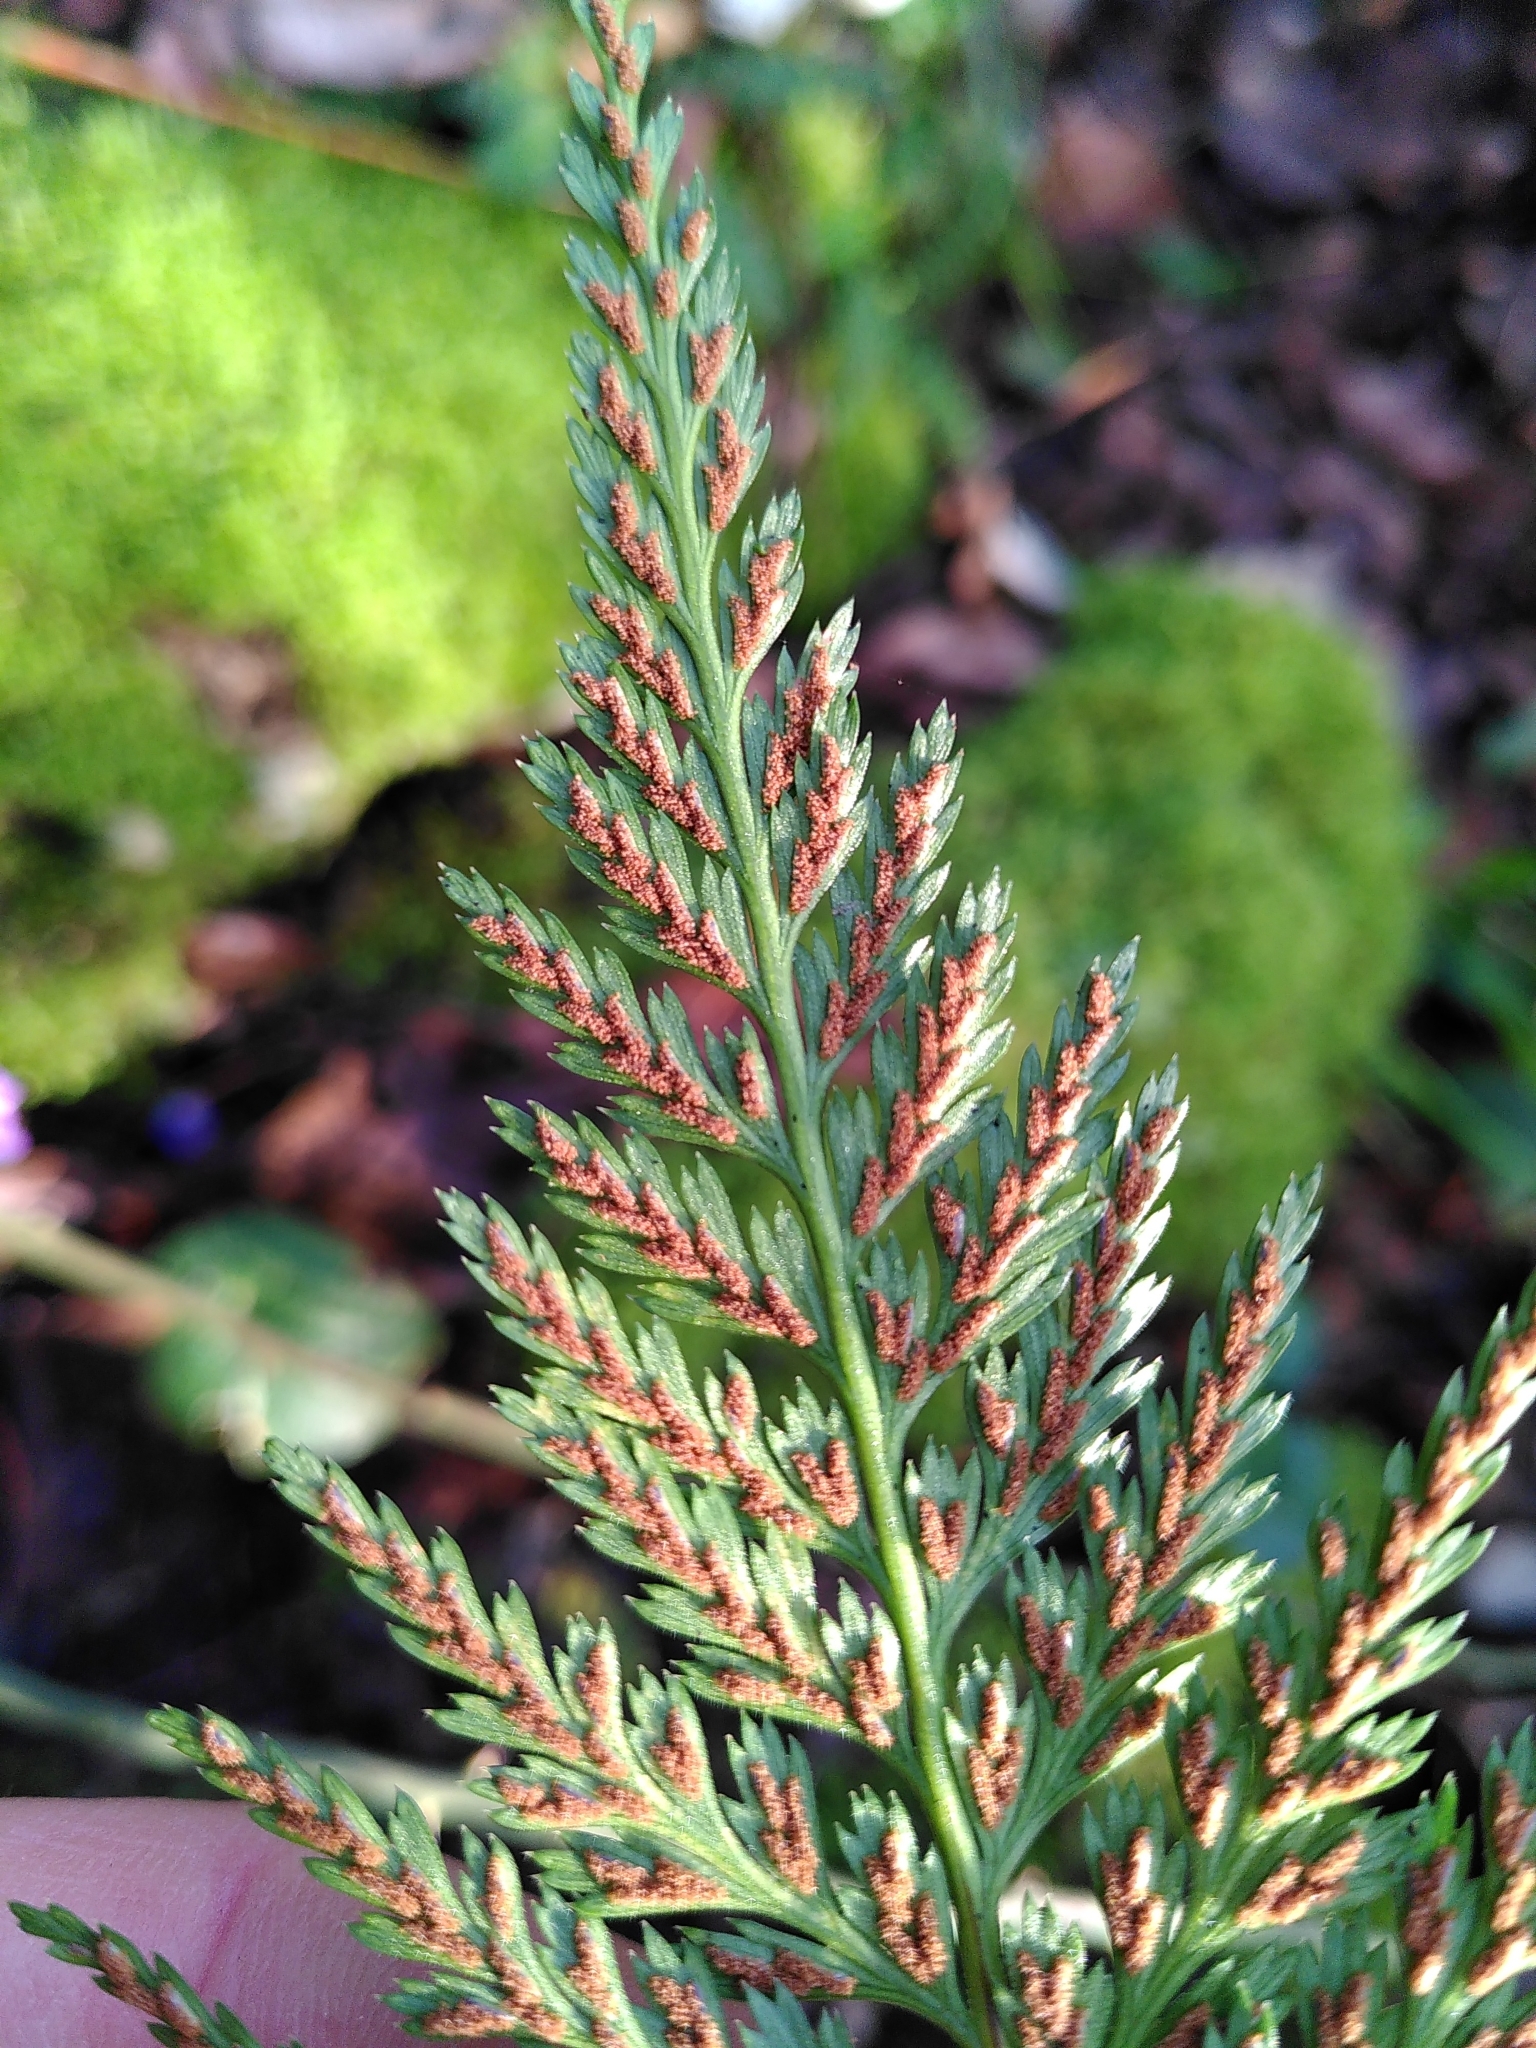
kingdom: Plantae
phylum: Tracheophyta
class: Polypodiopsida
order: Polypodiales
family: Aspleniaceae
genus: Asplenium
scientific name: Asplenium onopteris
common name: Irish spleenwort
